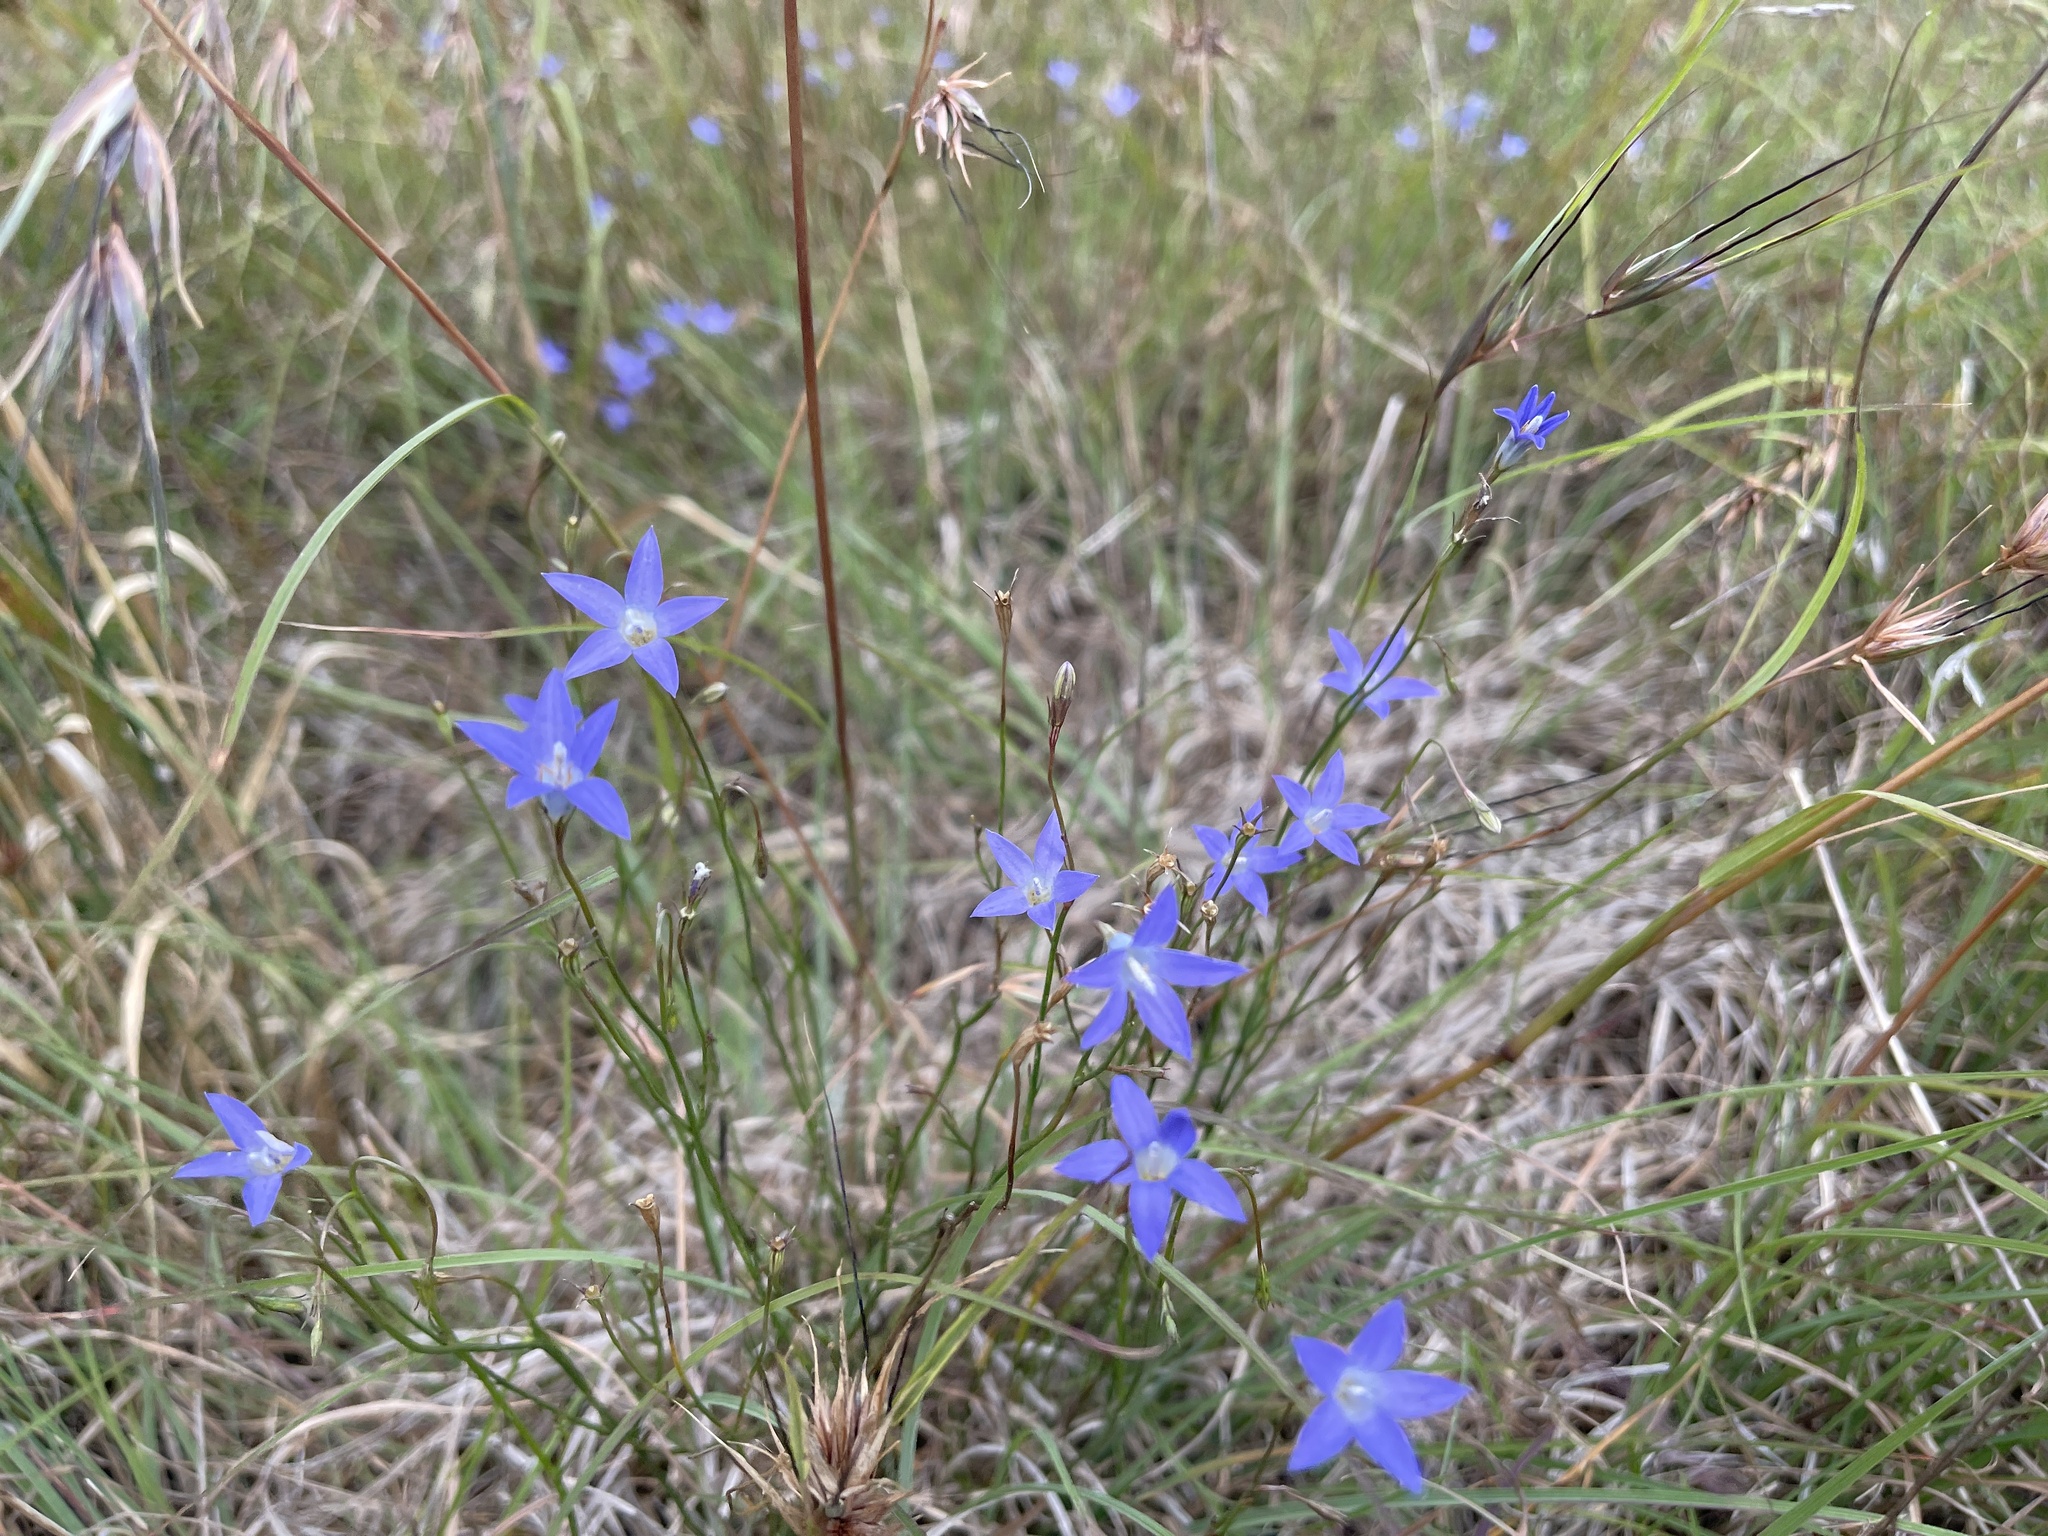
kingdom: Plantae
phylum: Tracheophyta
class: Magnoliopsida
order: Asterales
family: Campanulaceae
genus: Wahlenbergia
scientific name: Wahlenbergia capillaris
